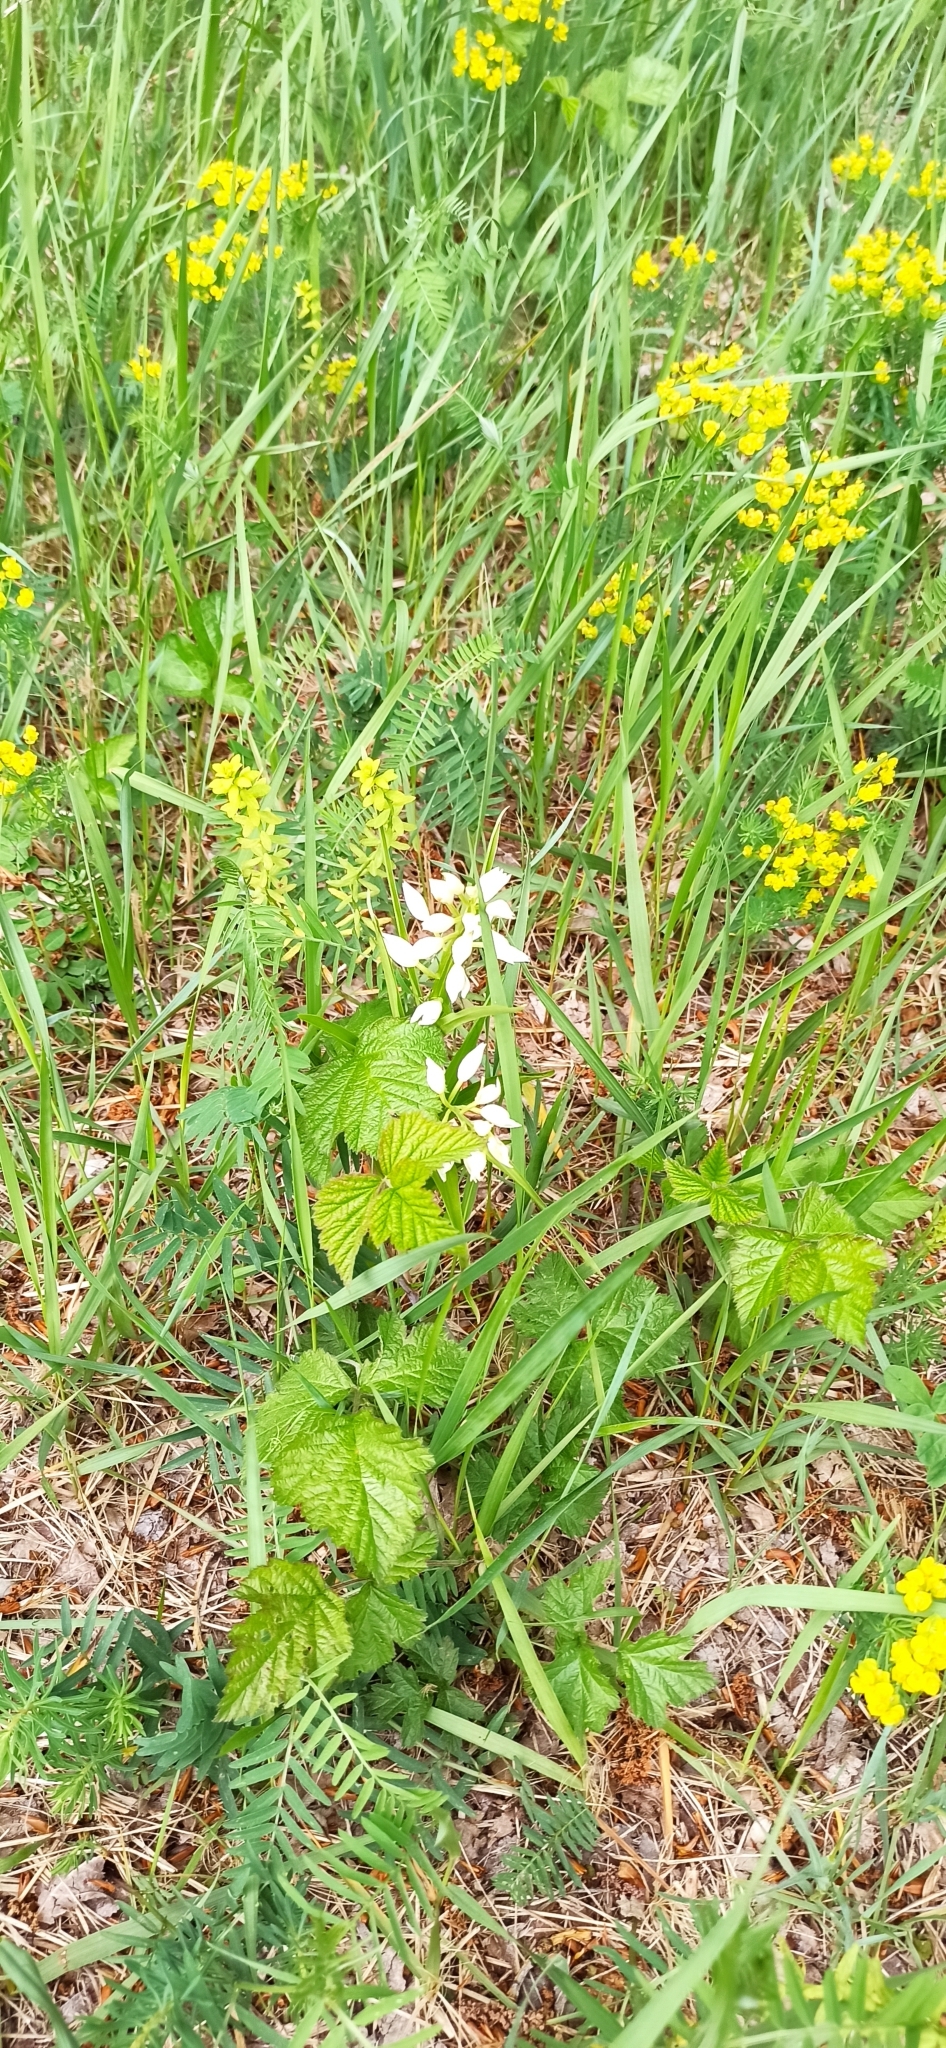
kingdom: Plantae
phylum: Tracheophyta
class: Liliopsida
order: Asparagales
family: Orchidaceae
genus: Cephalanthera
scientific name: Cephalanthera longifolia
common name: Narrow-leaved helleborine
